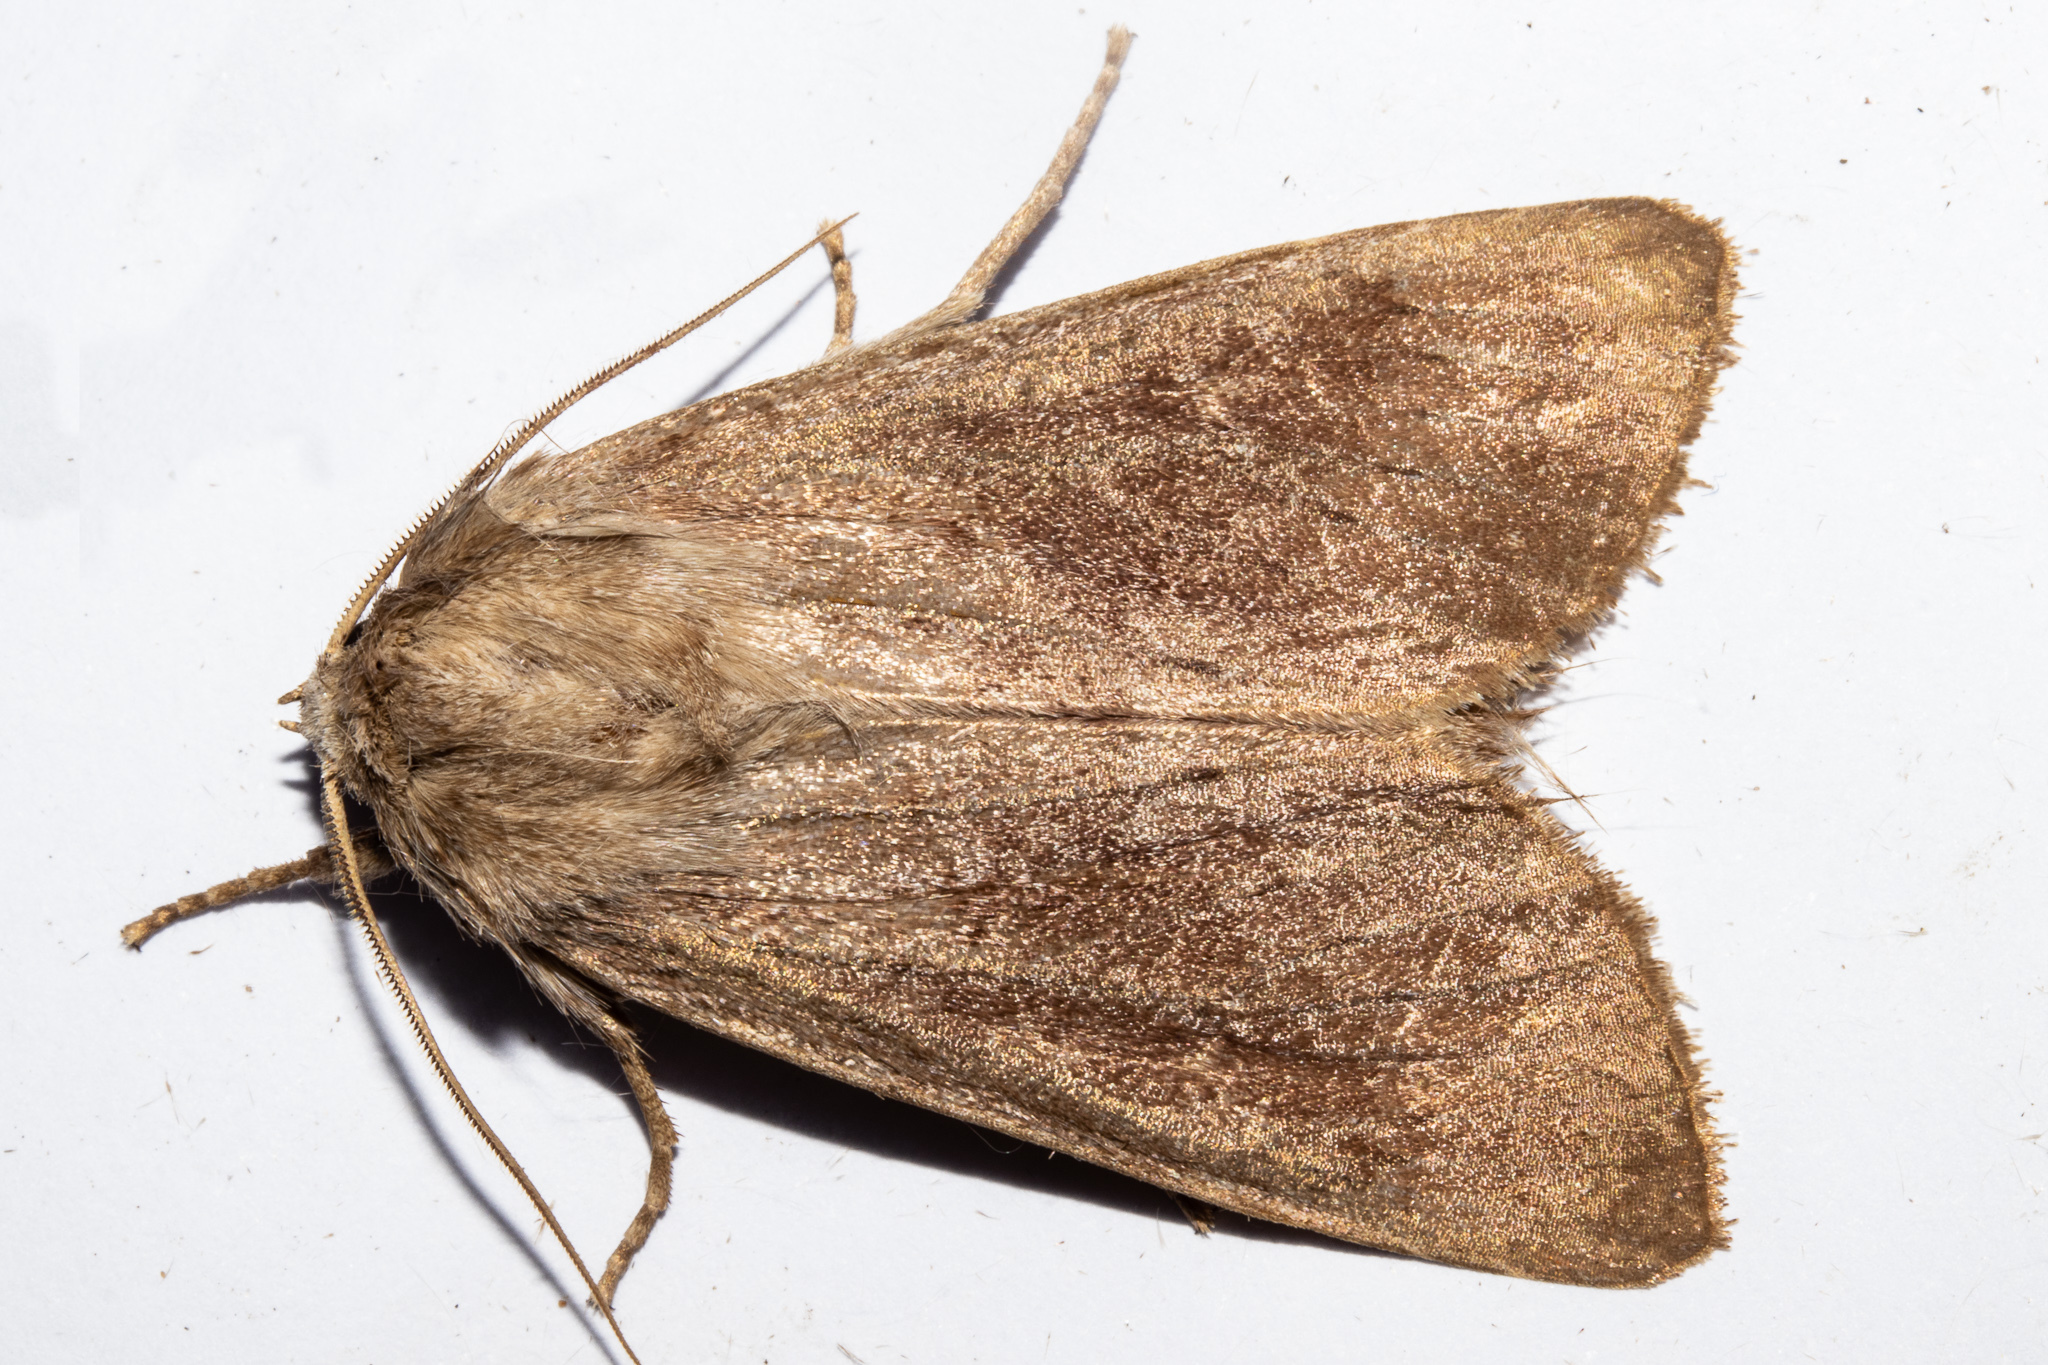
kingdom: Animalia
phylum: Arthropoda
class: Insecta
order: Lepidoptera
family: Noctuidae
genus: Ichneutica
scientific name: Ichneutica nullifera
